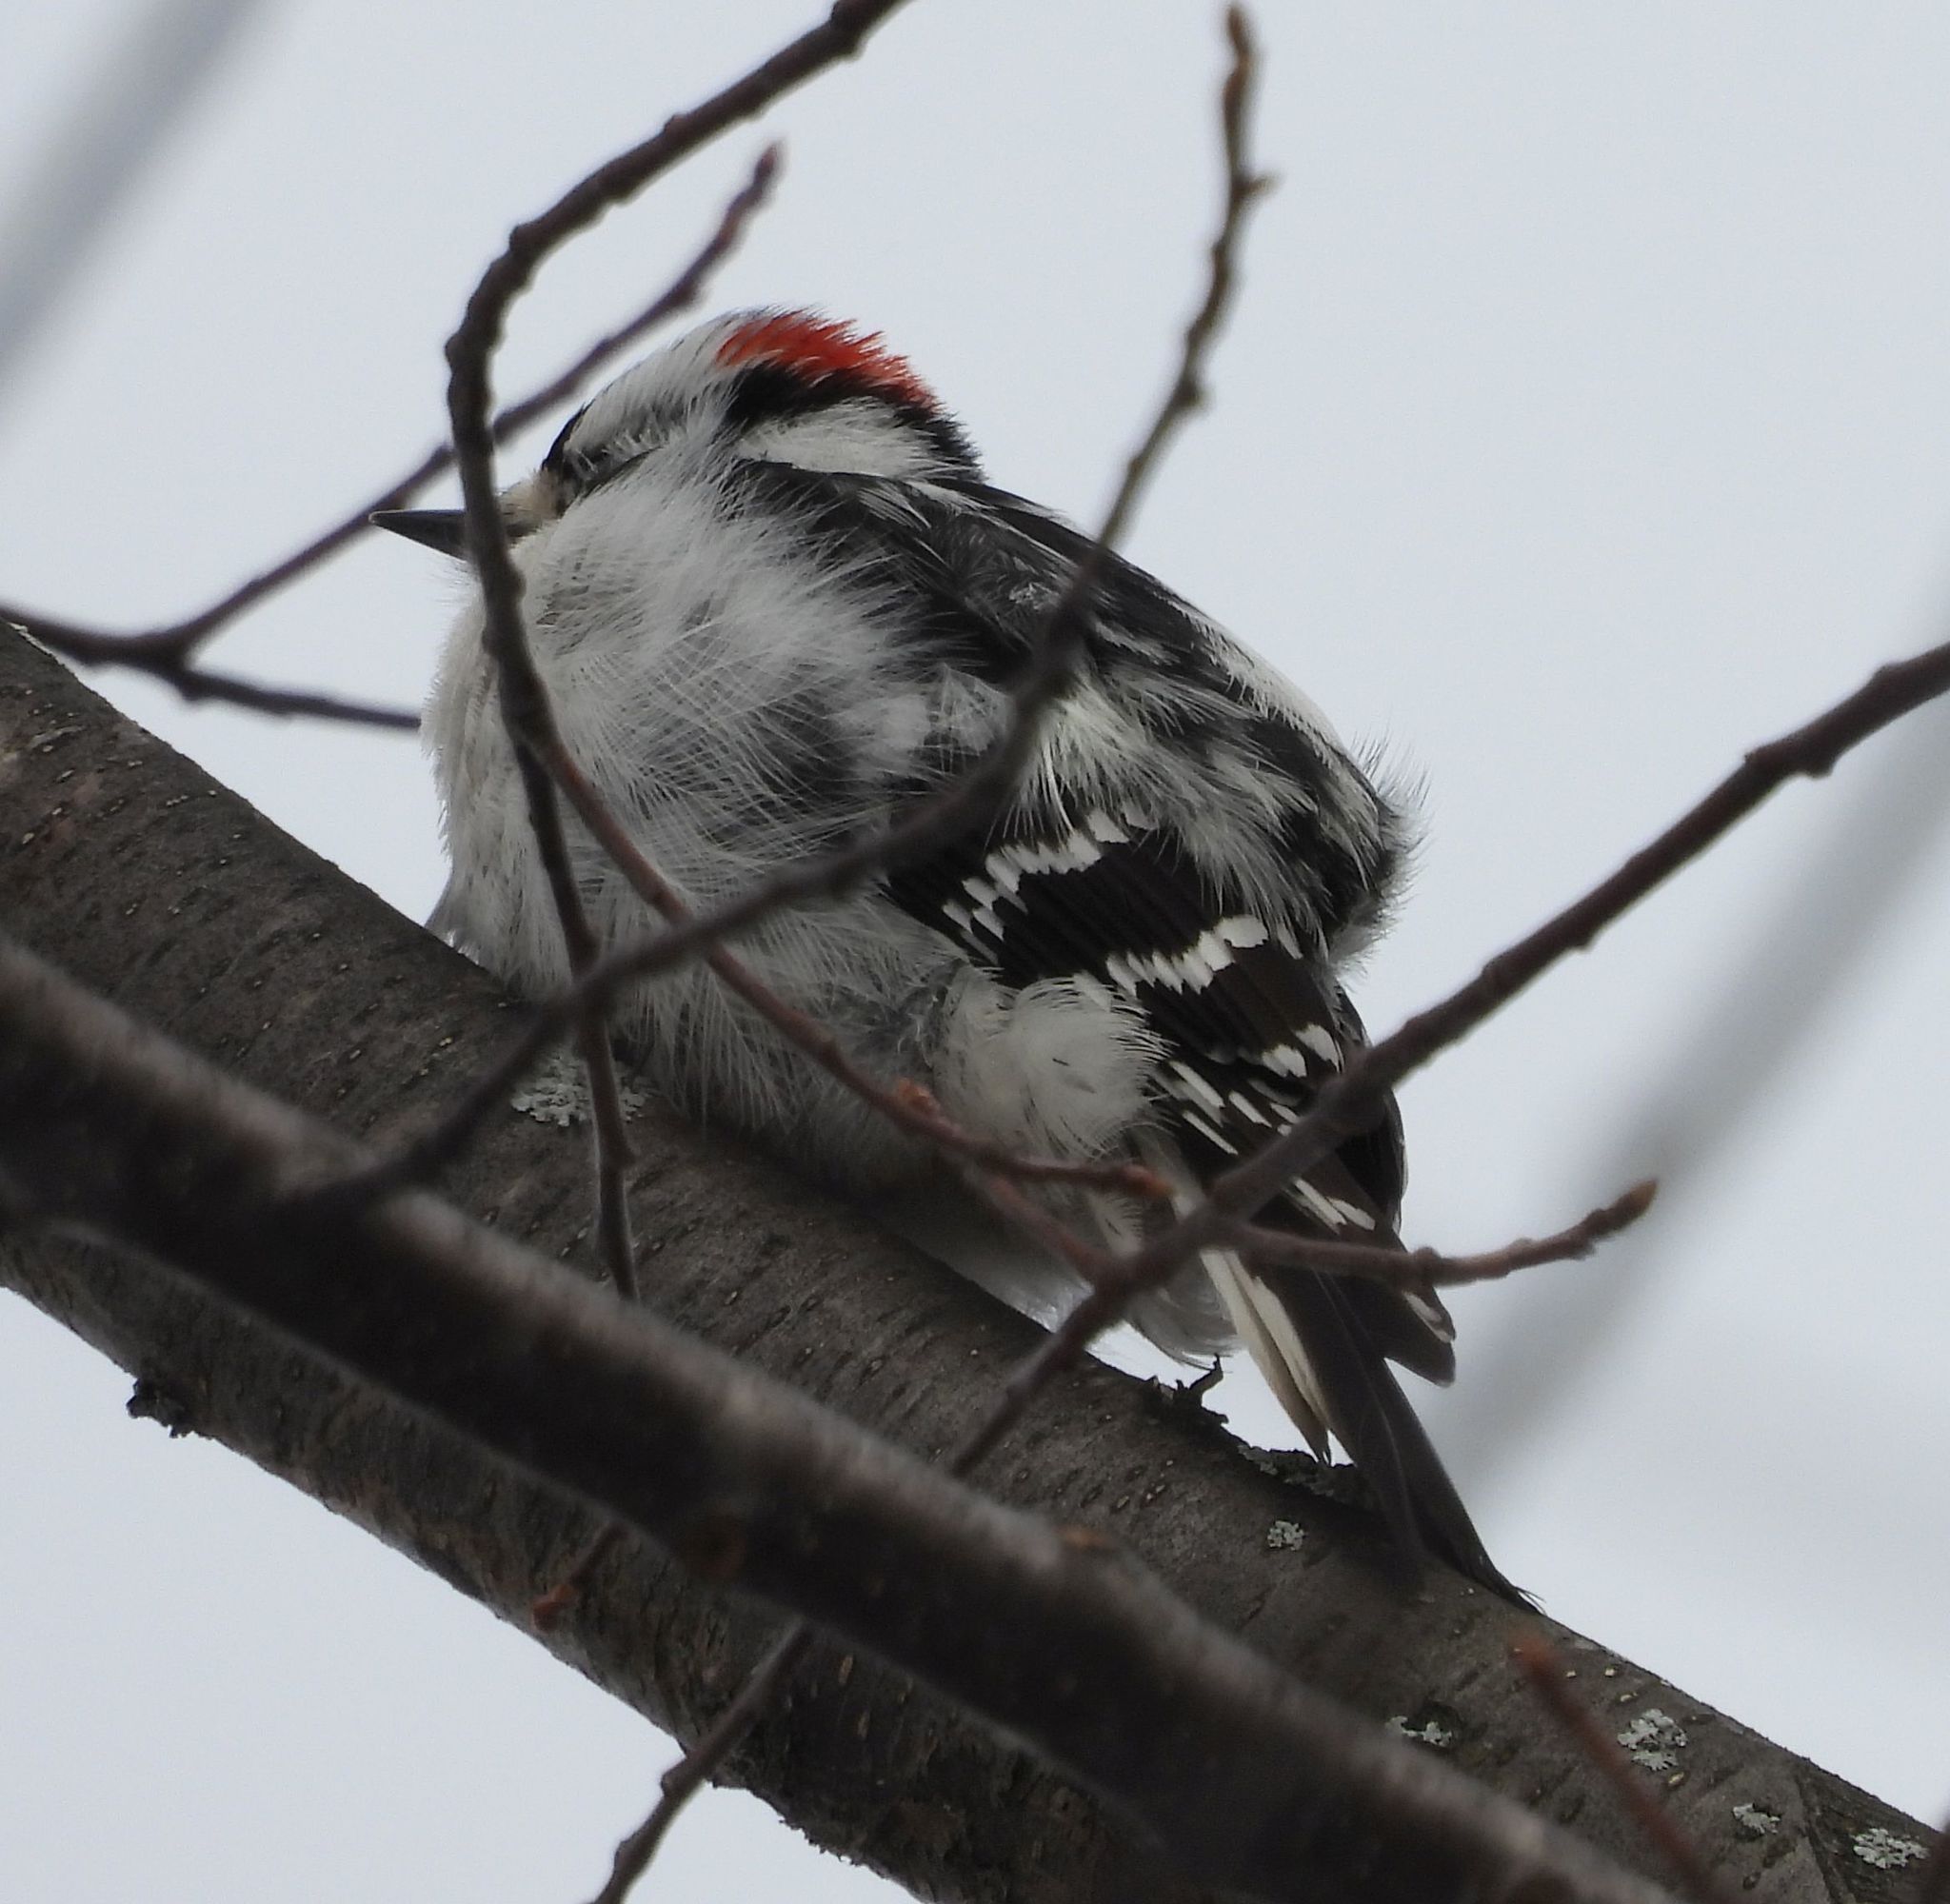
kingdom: Animalia
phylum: Chordata
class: Aves
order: Piciformes
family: Picidae
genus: Dryobates
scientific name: Dryobates pubescens
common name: Downy woodpecker
